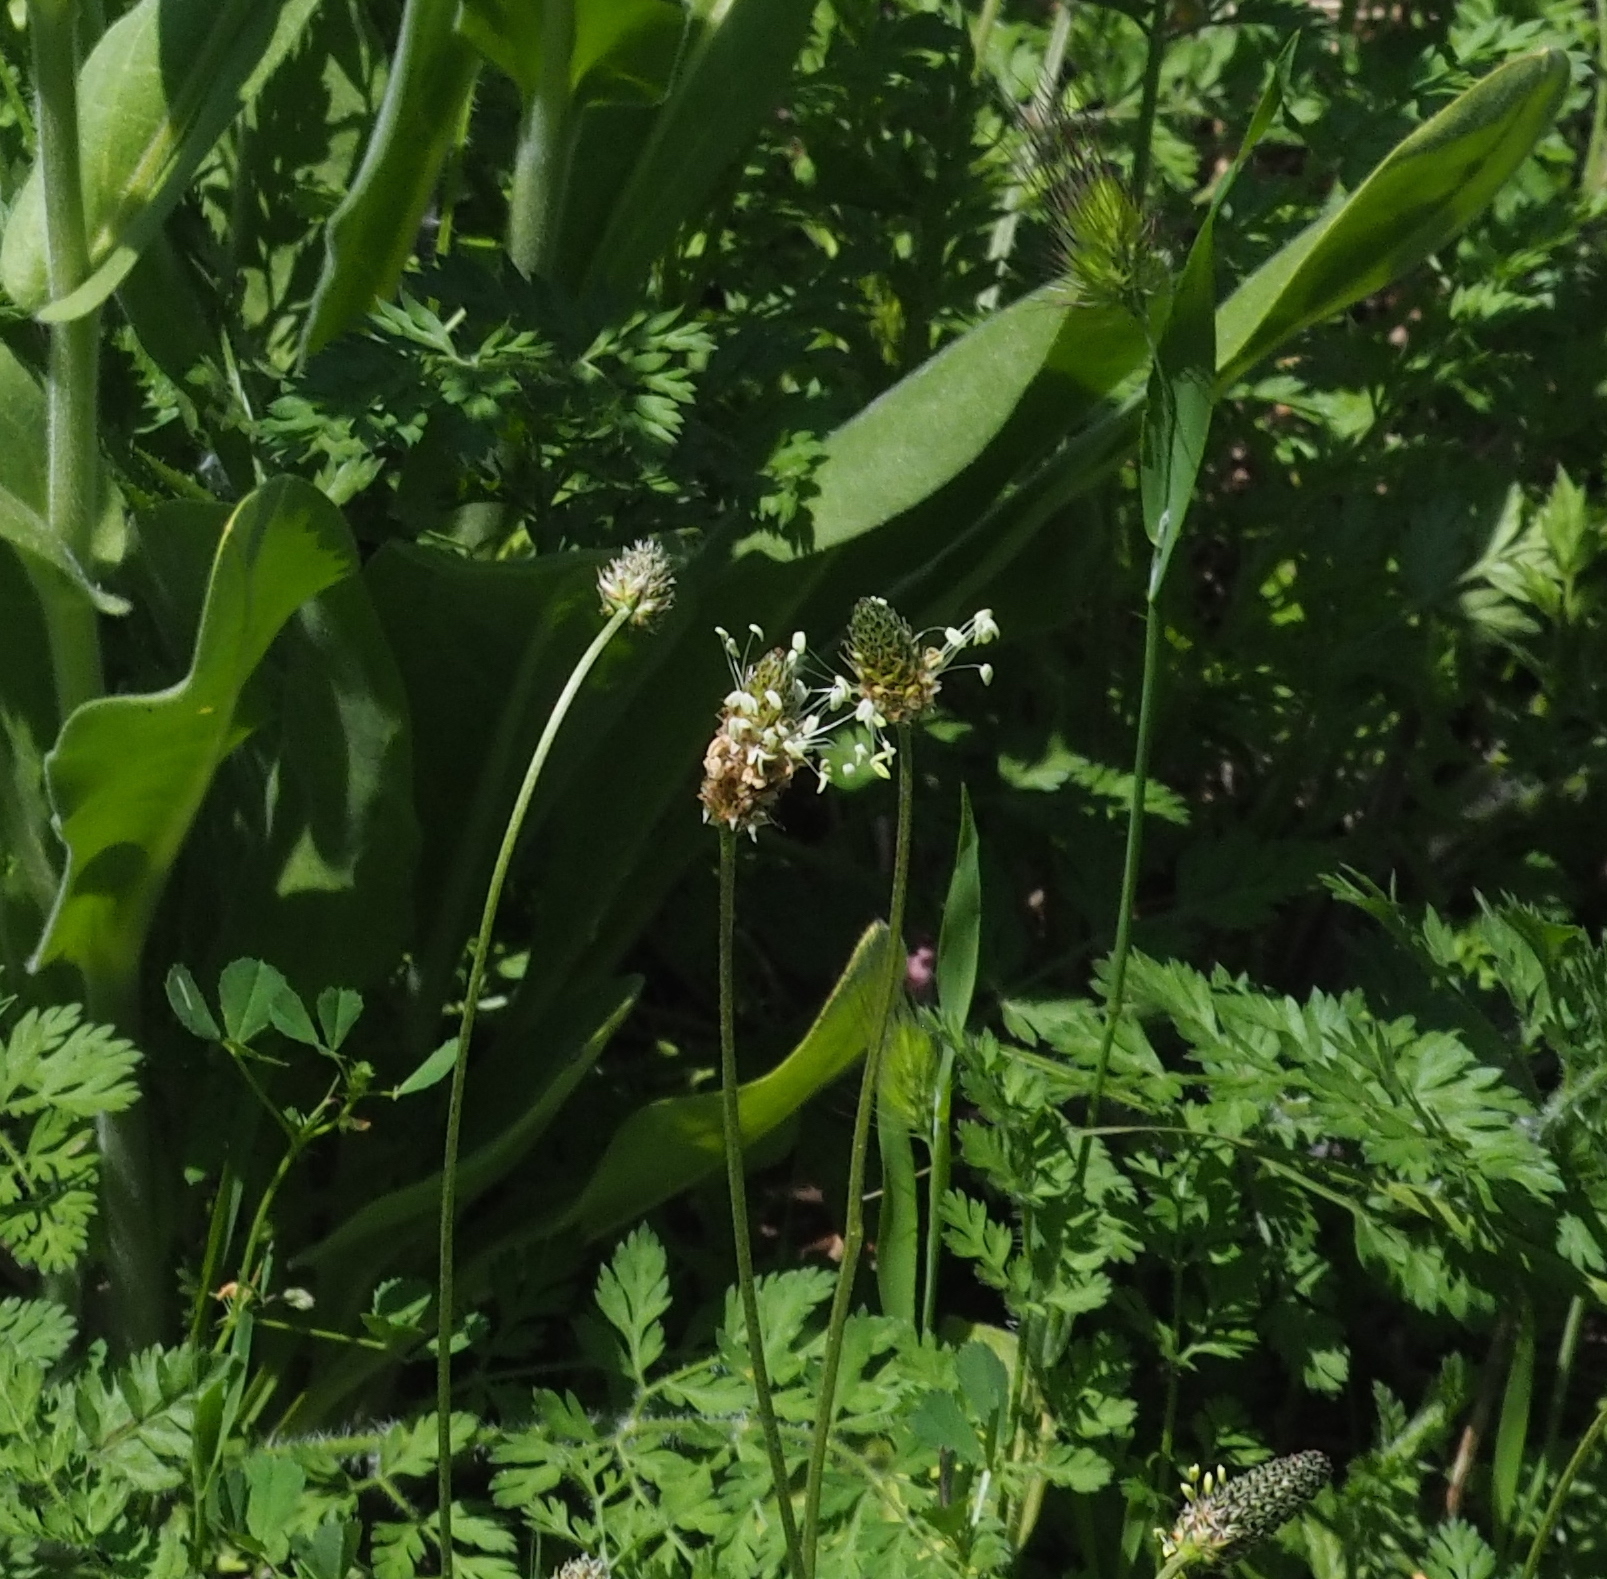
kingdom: Plantae
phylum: Tracheophyta
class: Magnoliopsida
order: Lamiales
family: Plantaginaceae
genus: Plantago
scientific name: Plantago lanceolata
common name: Ribwort plantain
